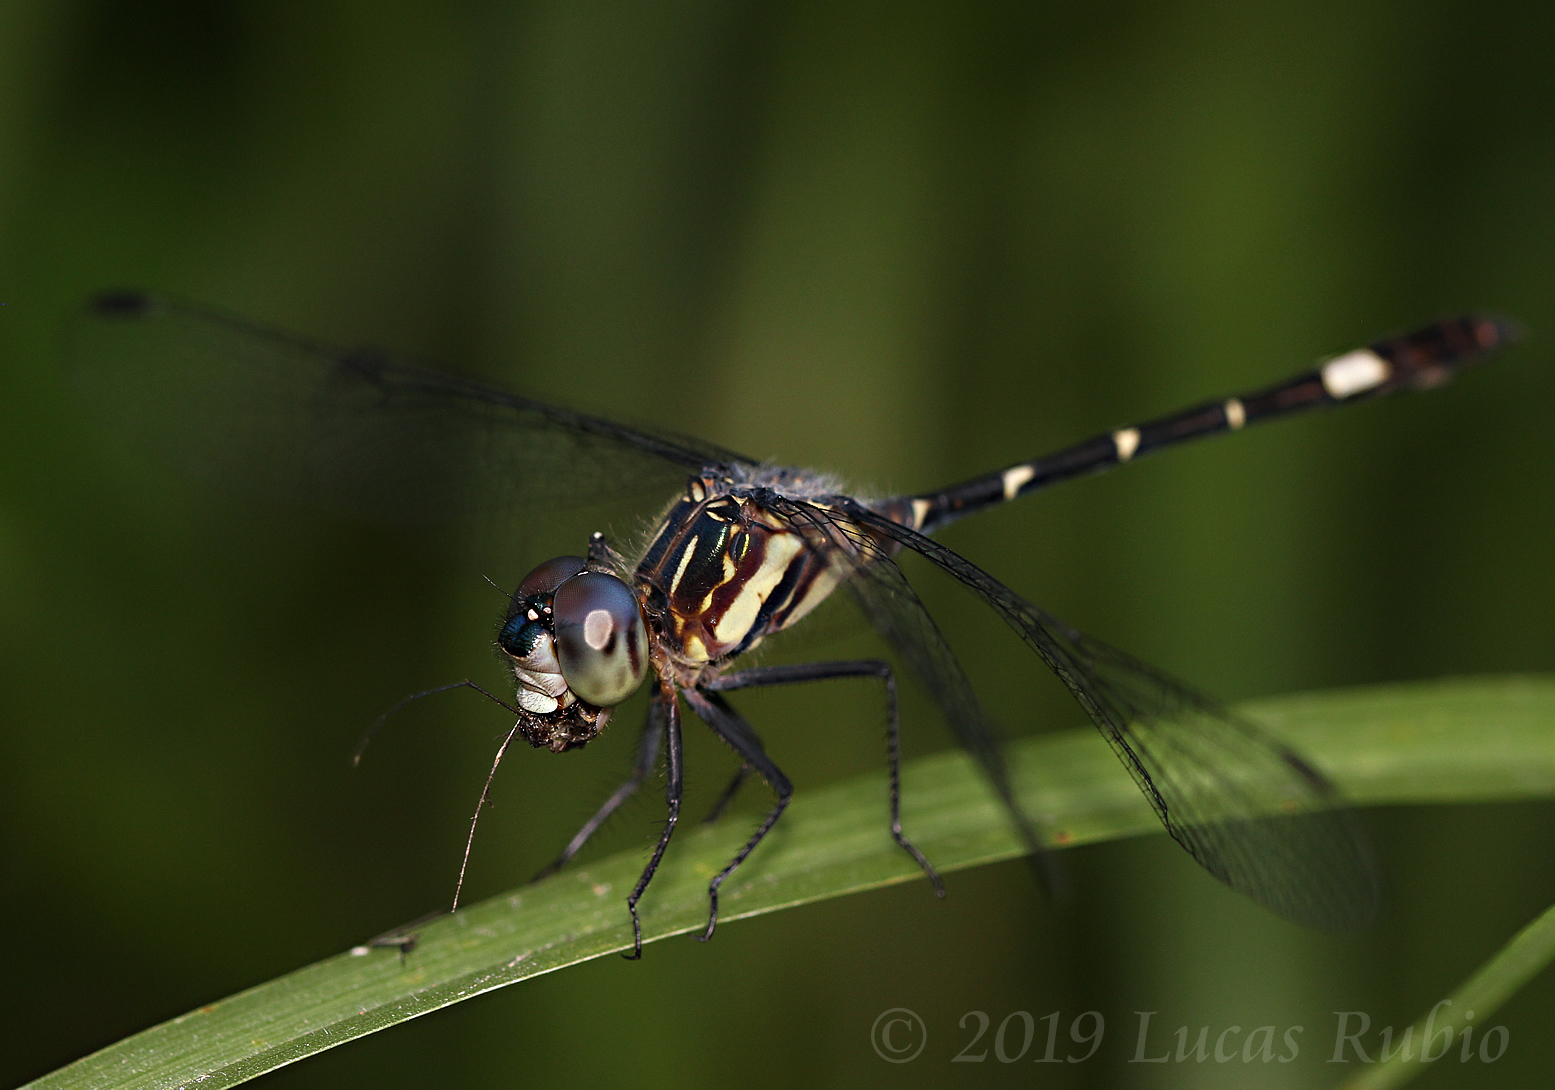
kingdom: Animalia
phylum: Arthropoda
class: Insecta
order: Odonata
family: Libellulidae
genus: Micrathyria
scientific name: Micrathyria hypodidyma
